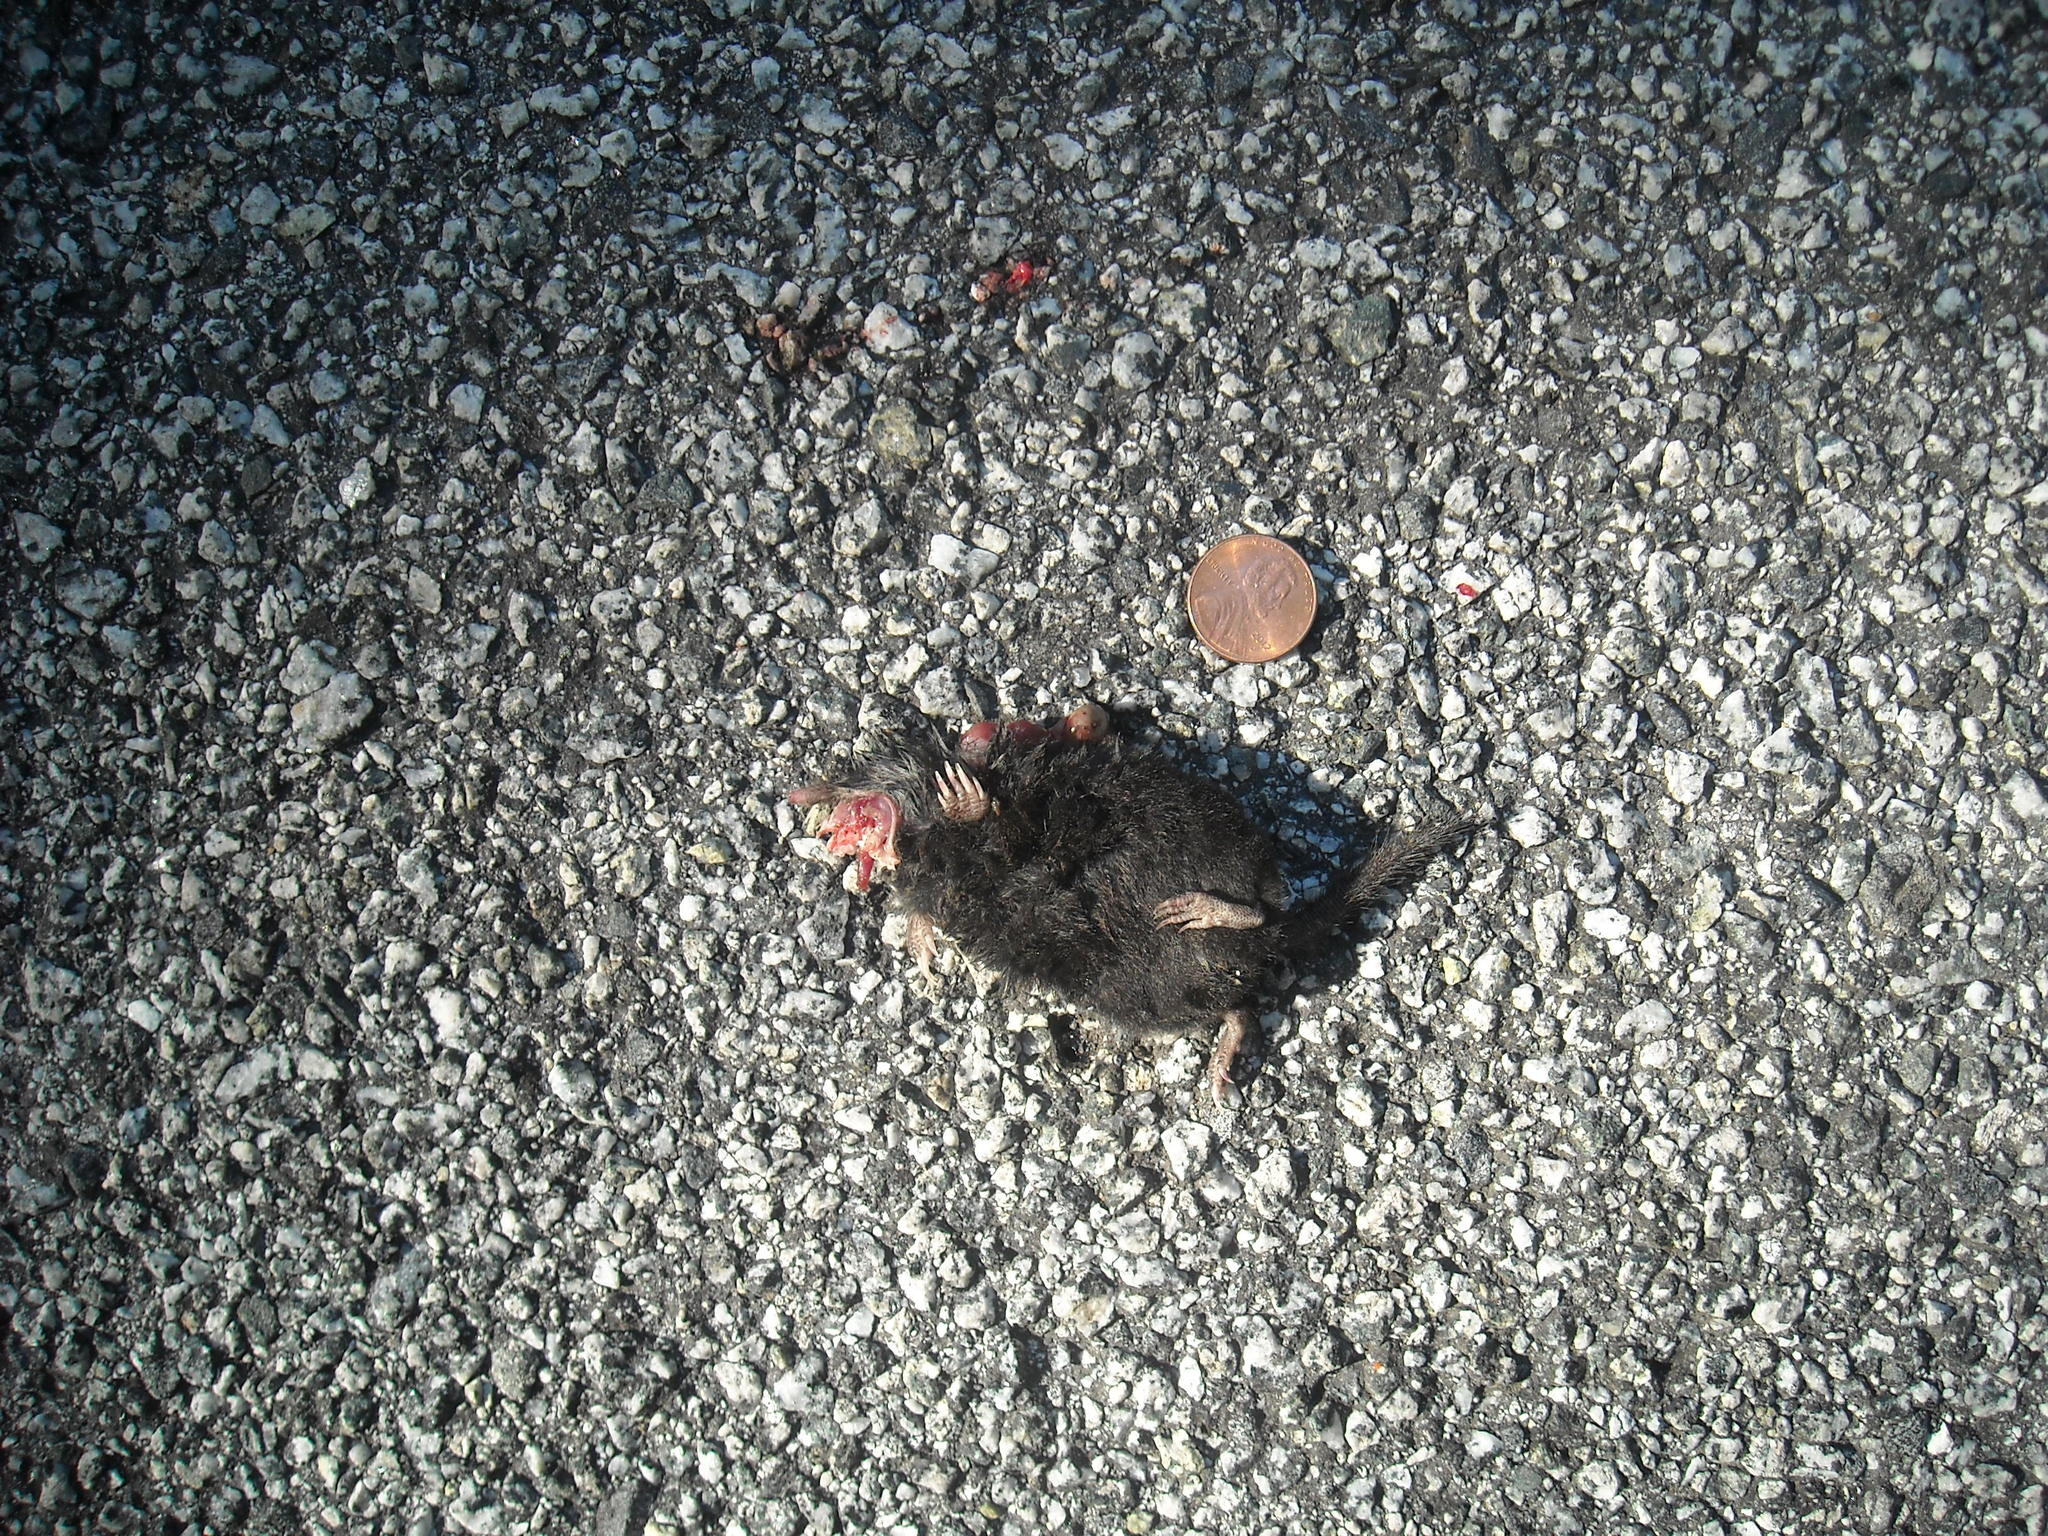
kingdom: Animalia
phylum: Chordata
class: Mammalia
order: Soricomorpha
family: Talpidae
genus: Neurotrichus
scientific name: Neurotrichus gibbsii
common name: American shrew mole
